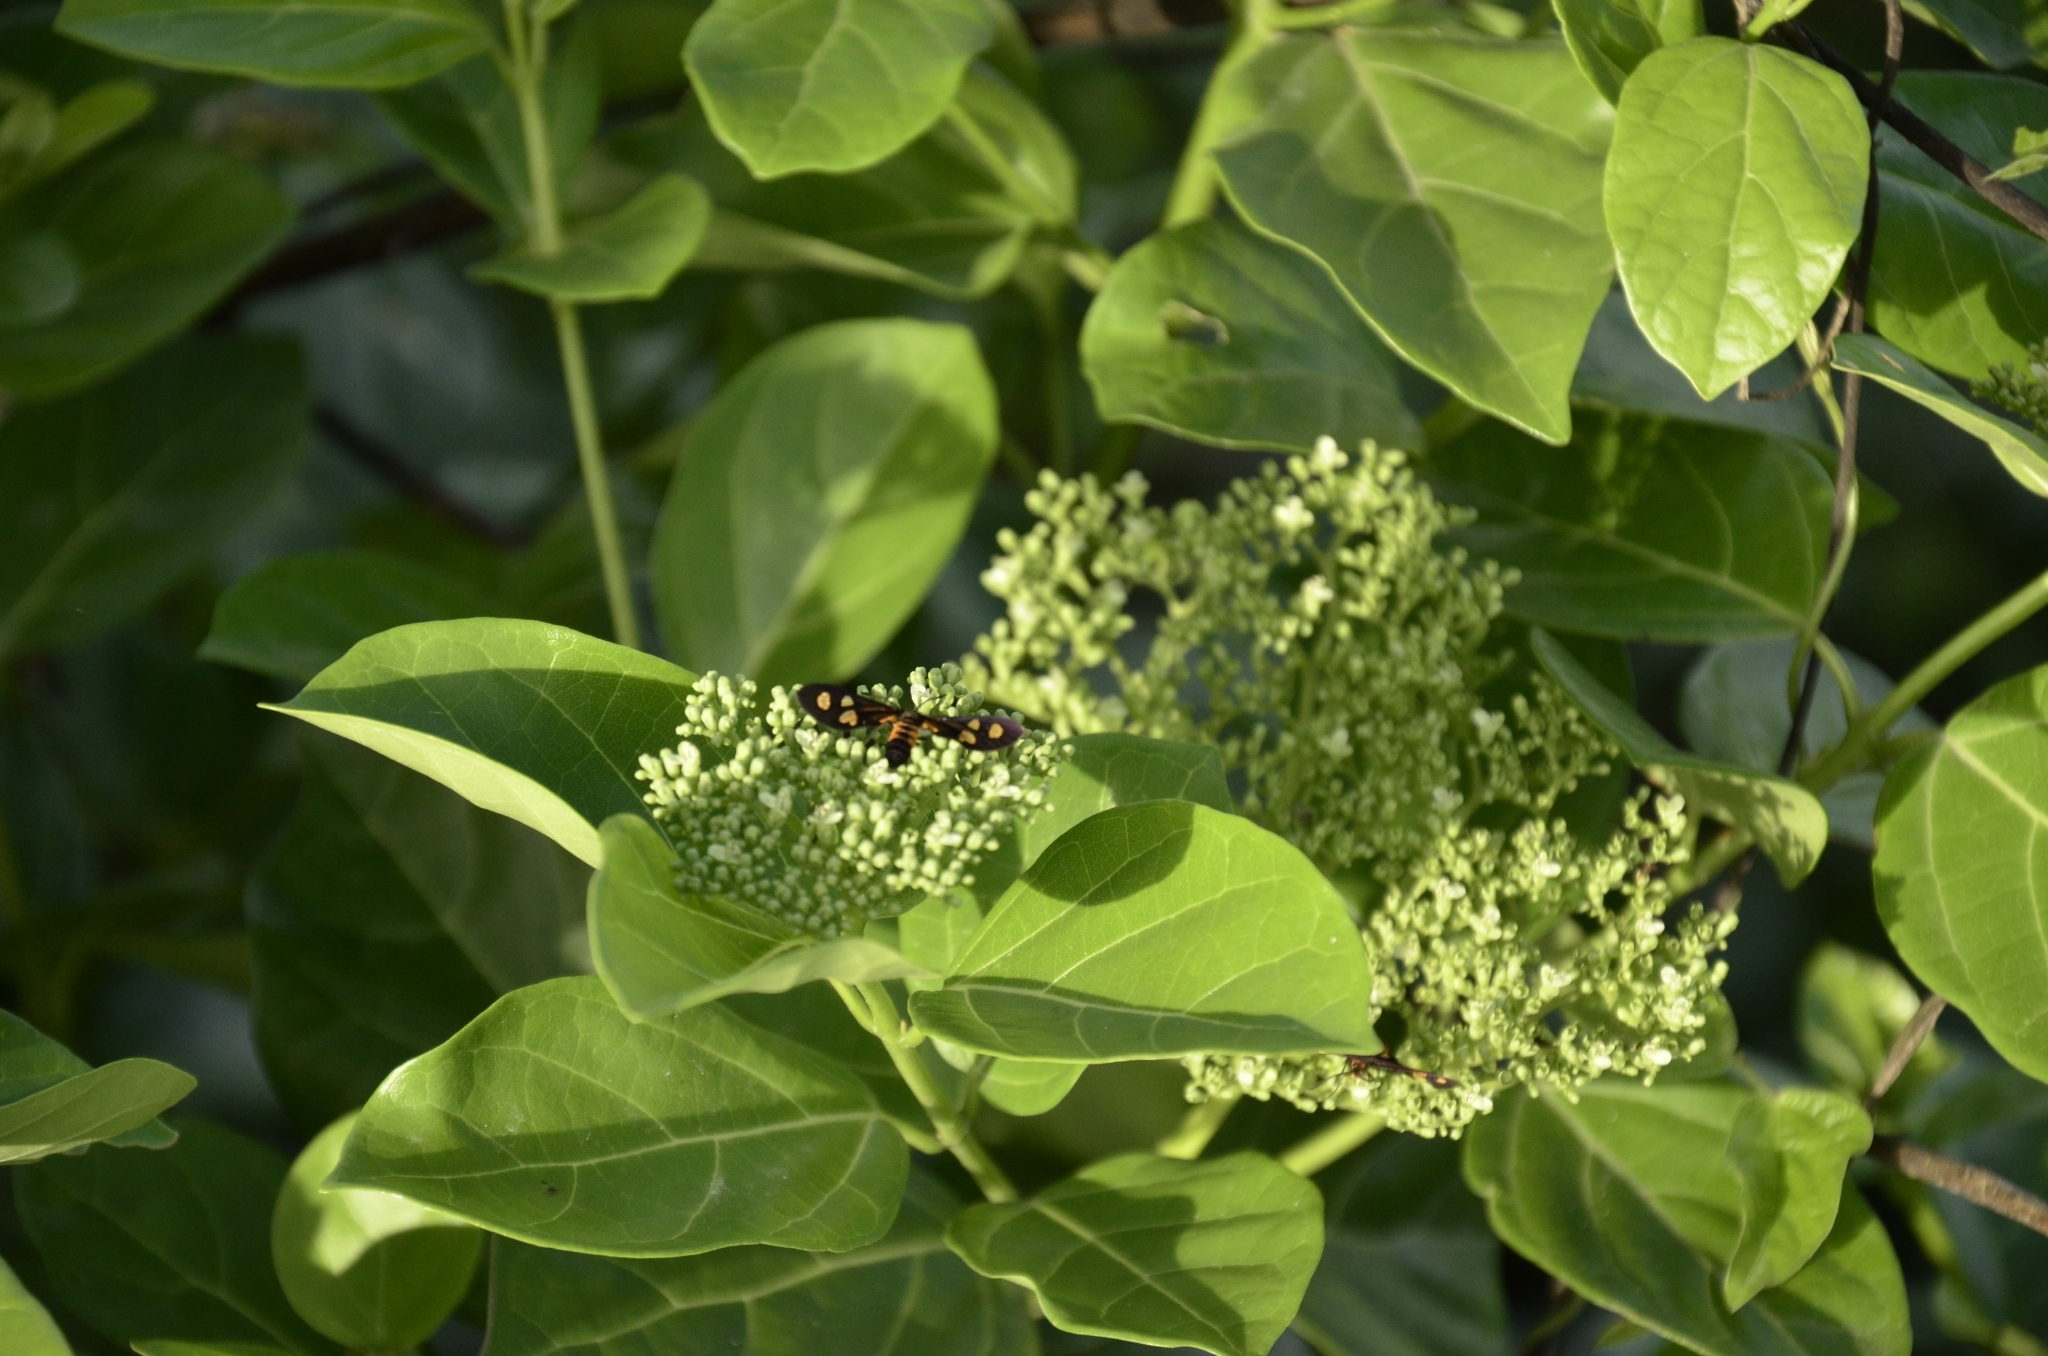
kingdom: Plantae
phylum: Tracheophyta
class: Magnoliopsida
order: Lamiales
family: Lamiaceae
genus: Premna
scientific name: Premna serratifolia
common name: Bastard guelder
